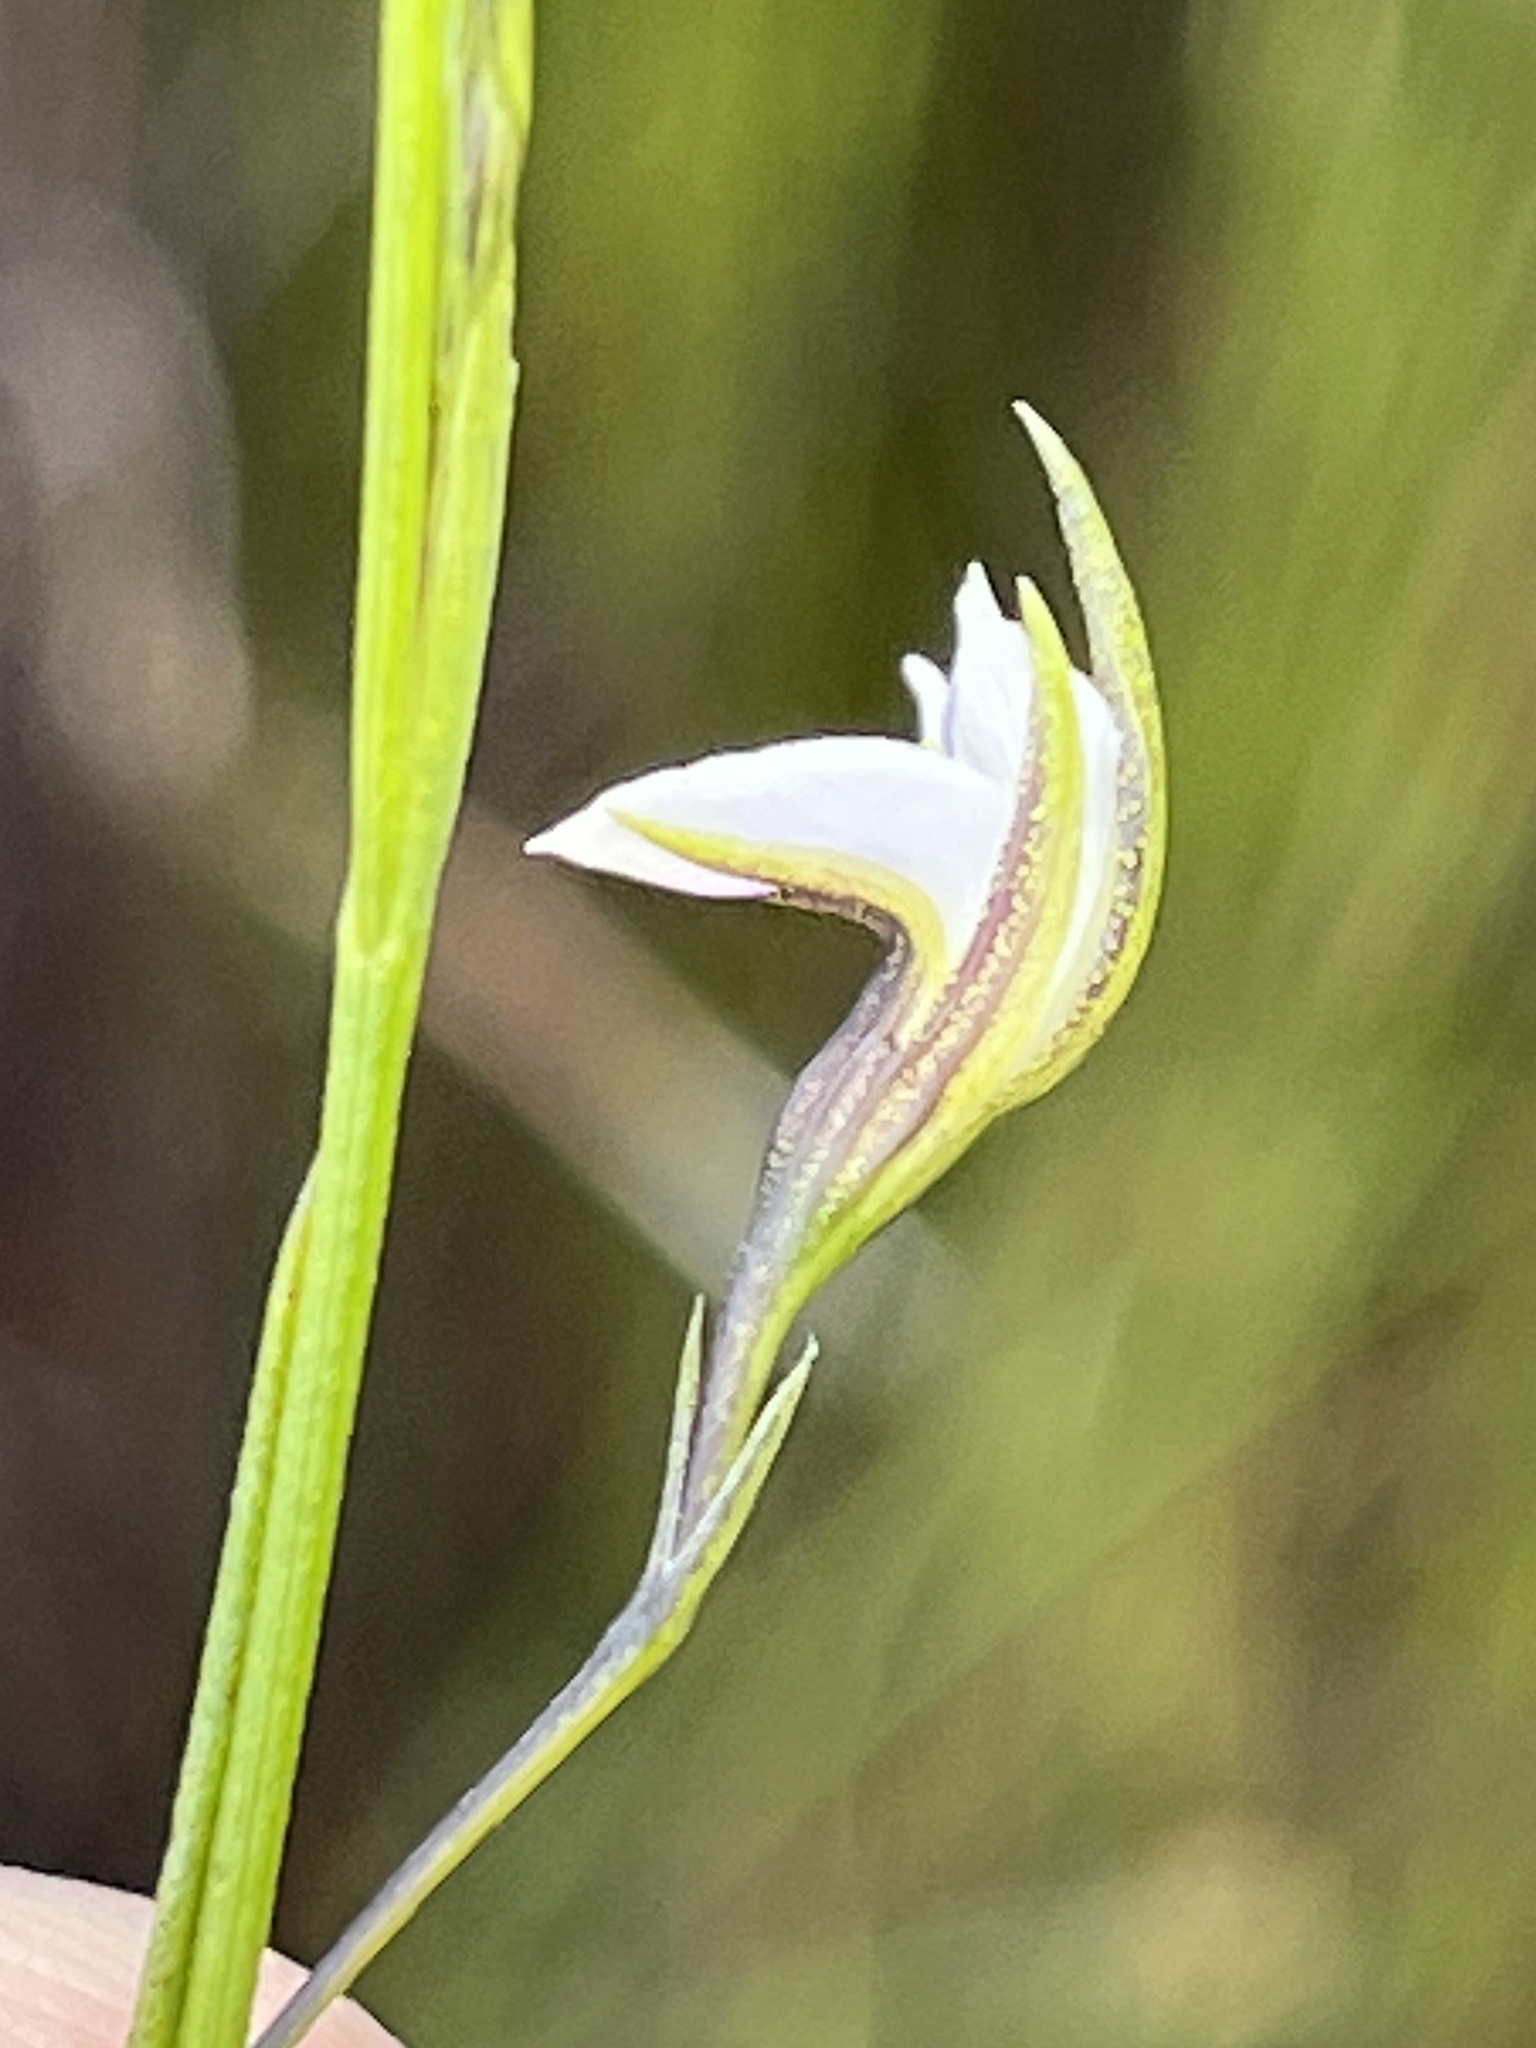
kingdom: Plantae
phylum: Tracheophyta
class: Magnoliopsida
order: Fabales
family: Fabaceae
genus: Psoralea
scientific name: Psoralea
